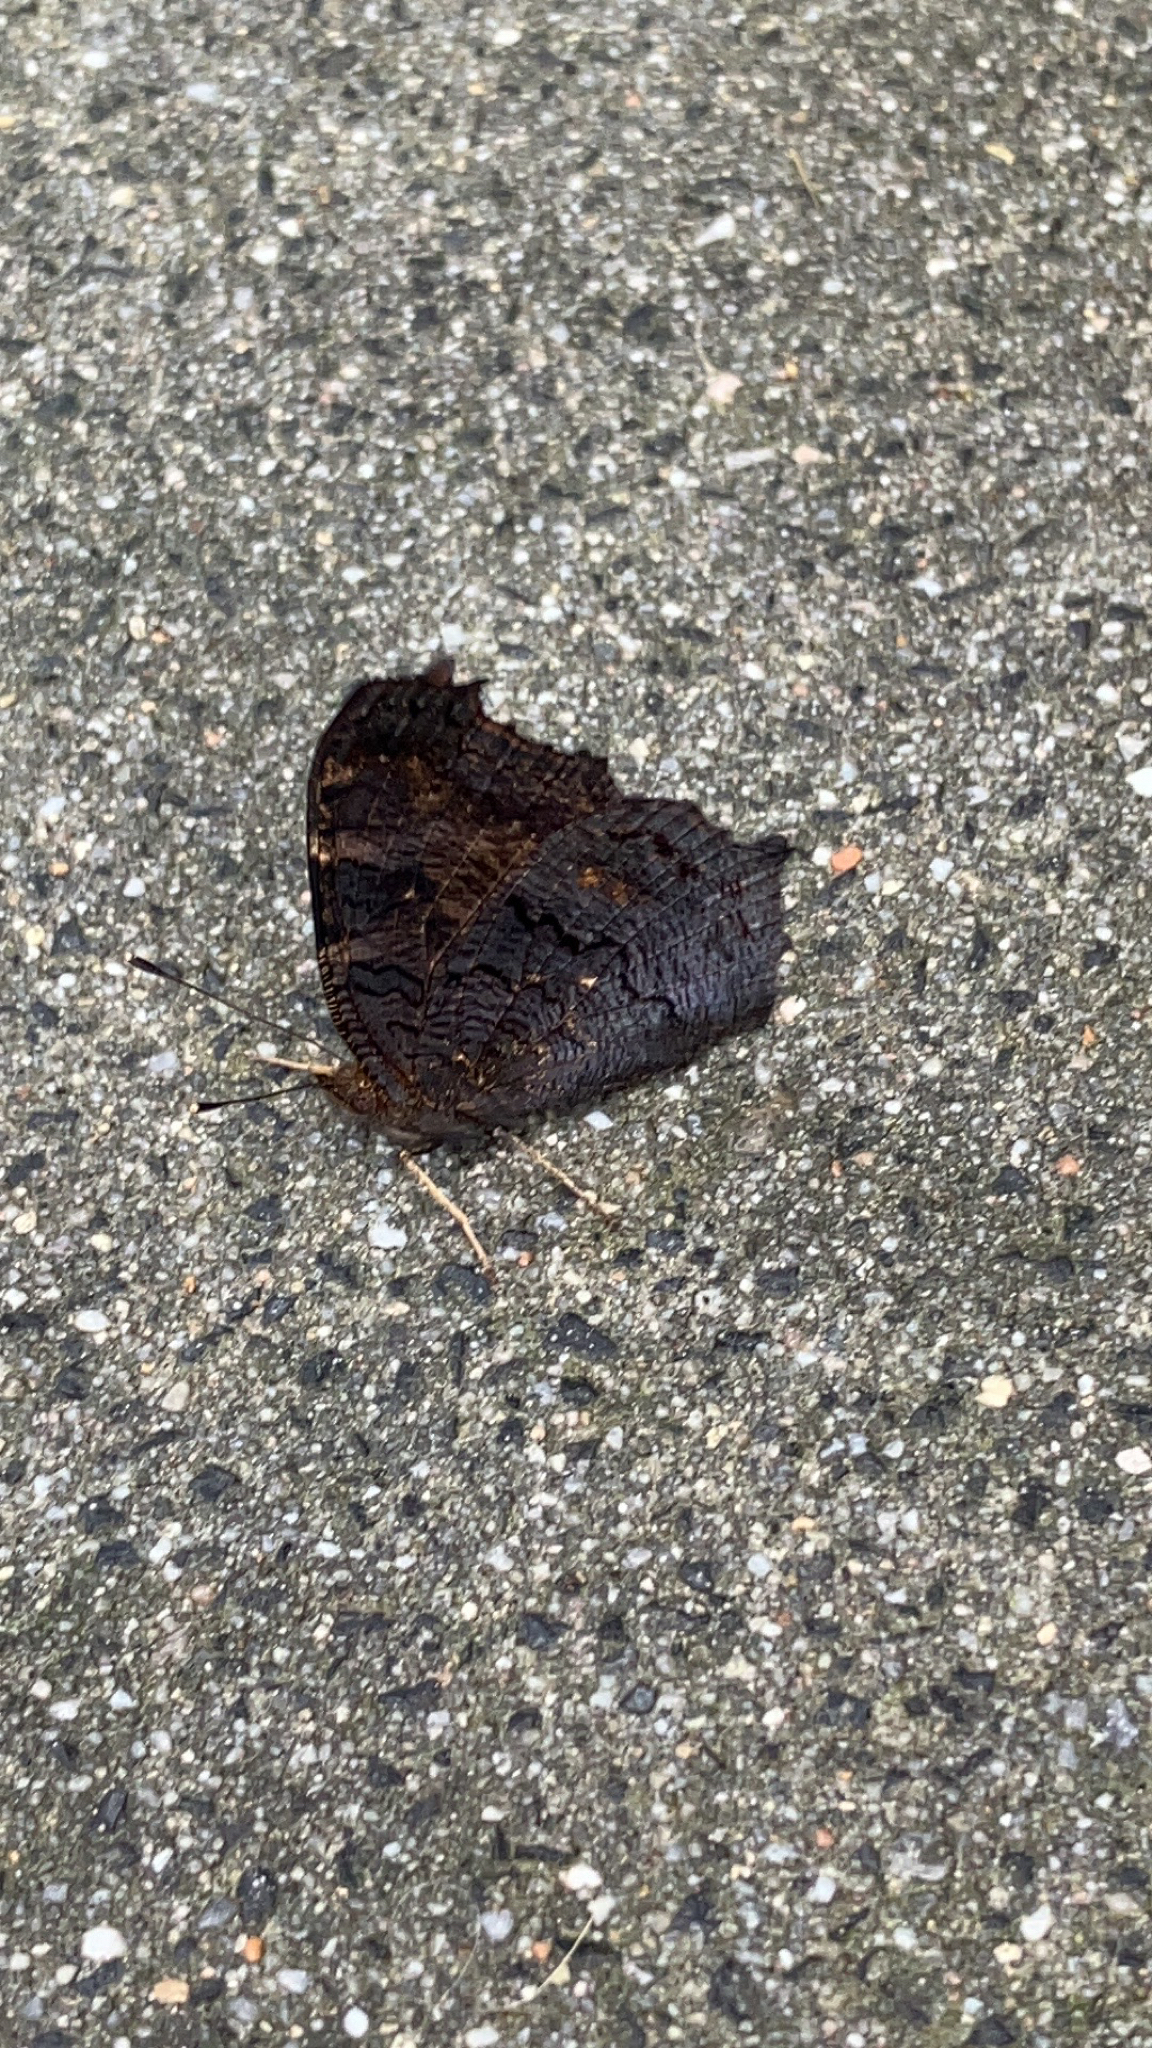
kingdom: Animalia
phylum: Arthropoda
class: Insecta
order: Lepidoptera
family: Nymphalidae
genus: Aglais
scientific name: Aglais io
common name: Peacock
